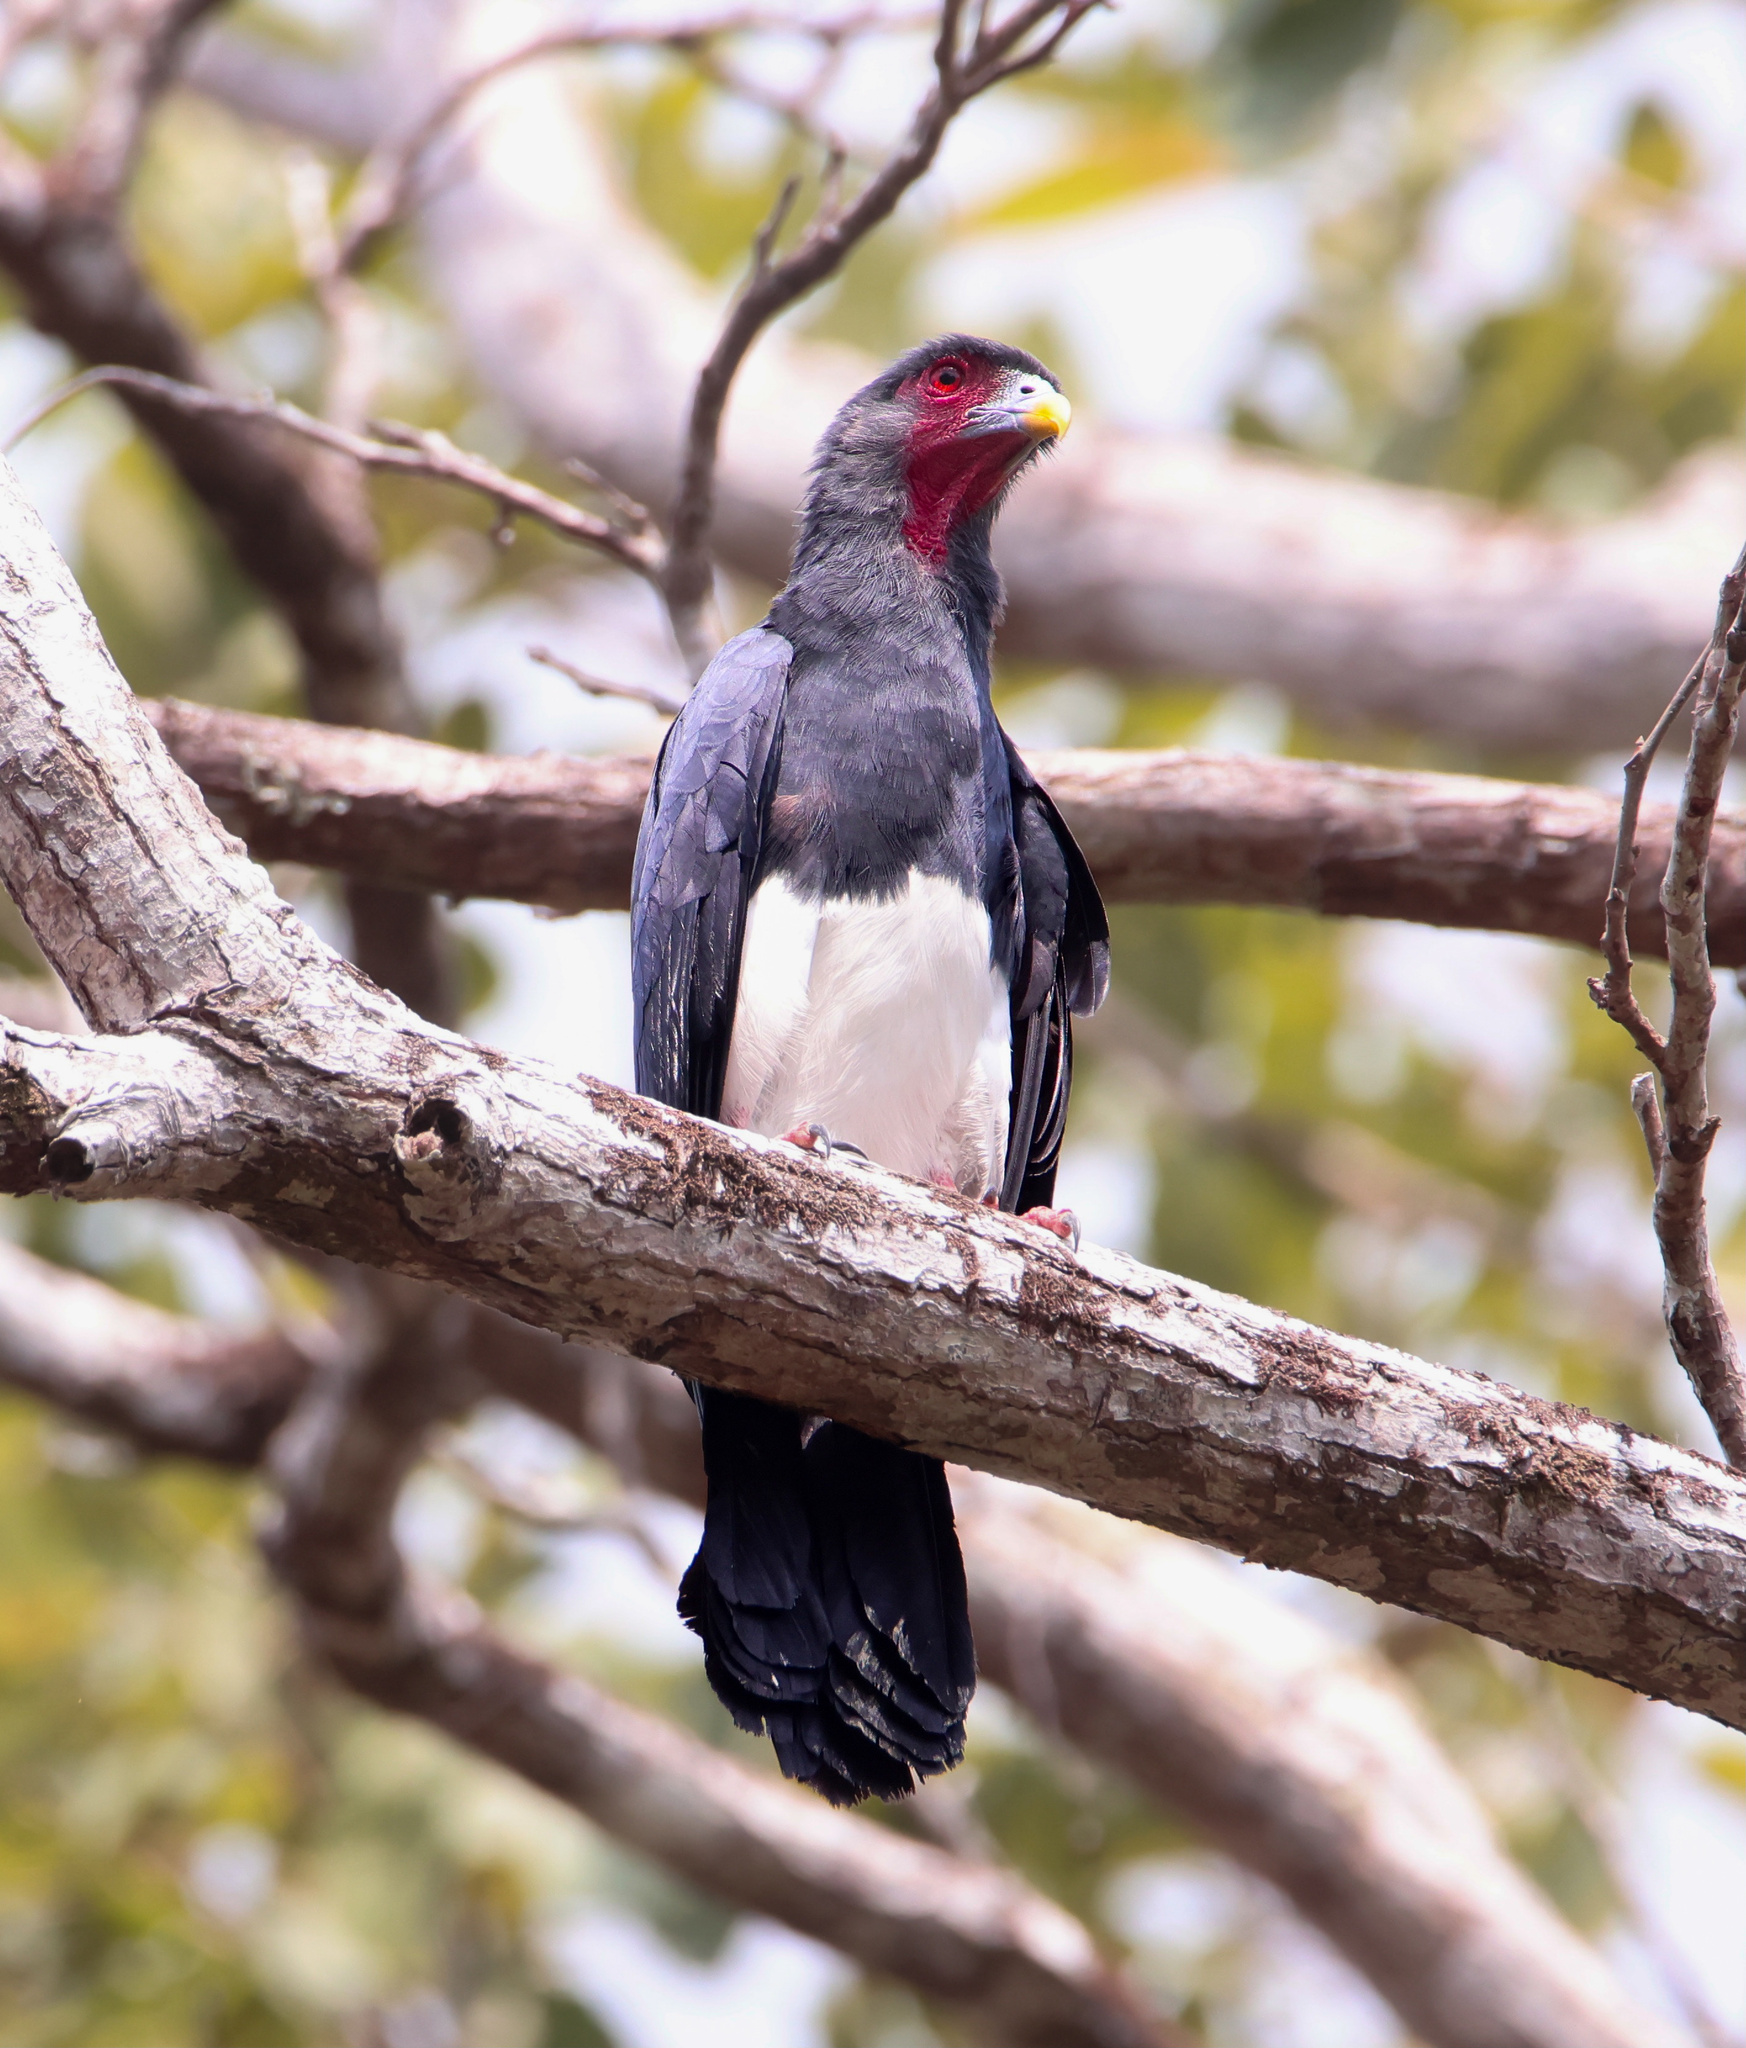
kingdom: Animalia
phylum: Chordata
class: Aves
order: Falconiformes
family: Falconidae
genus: Ibycter
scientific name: Ibycter americanus
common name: Red-throated caracara
